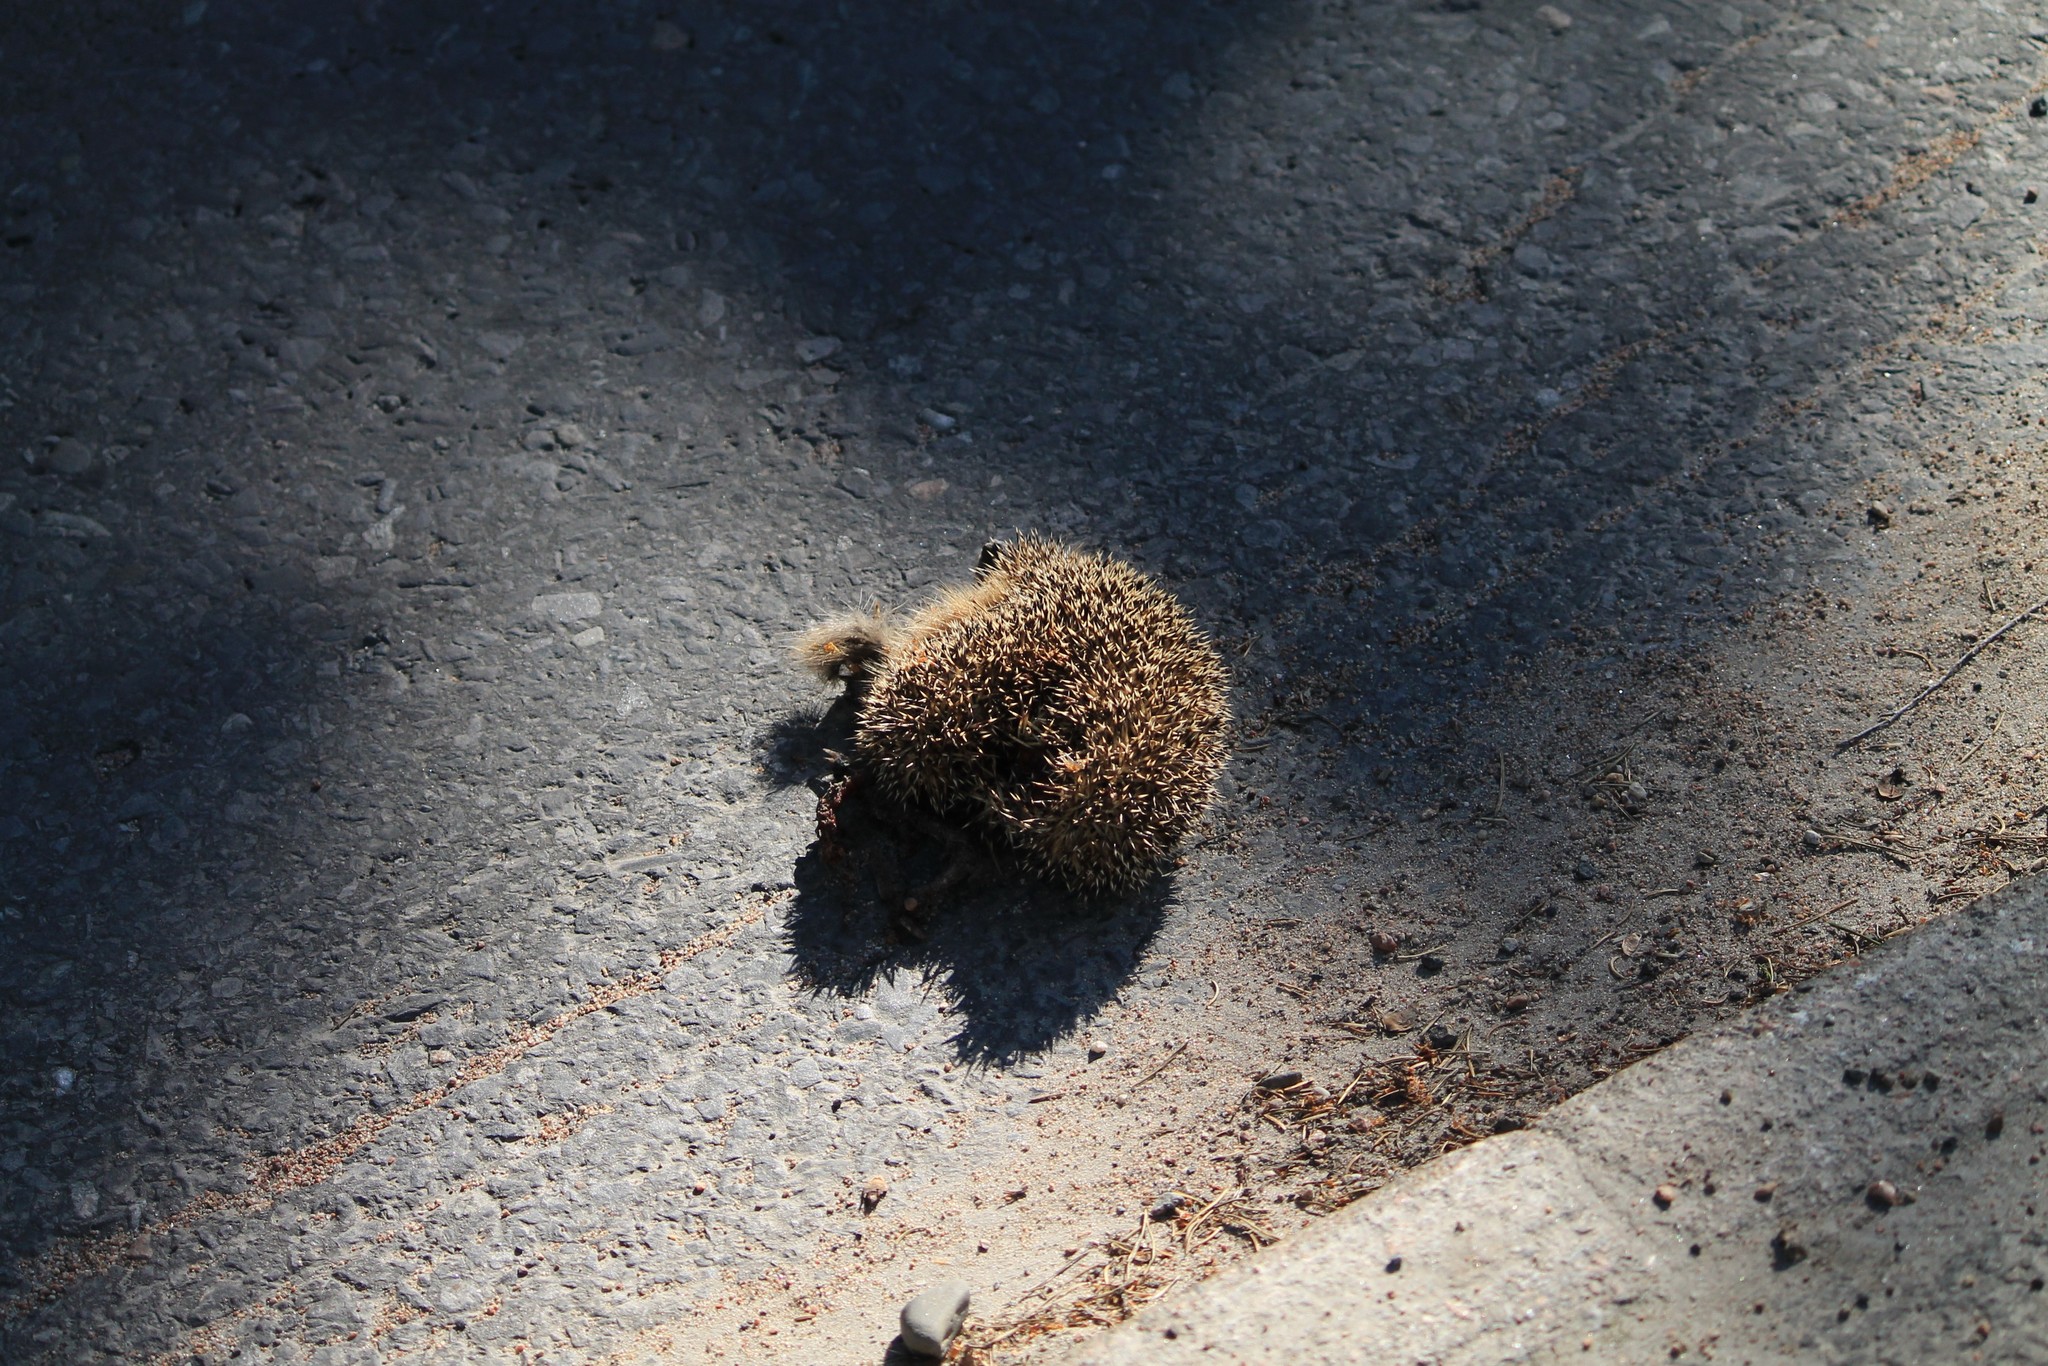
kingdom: Animalia
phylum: Chordata
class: Mammalia
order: Erinaceomorpha
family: Erinaceidae
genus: Erinaceus
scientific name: Erinaceus europaeus
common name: West european hedgehog
